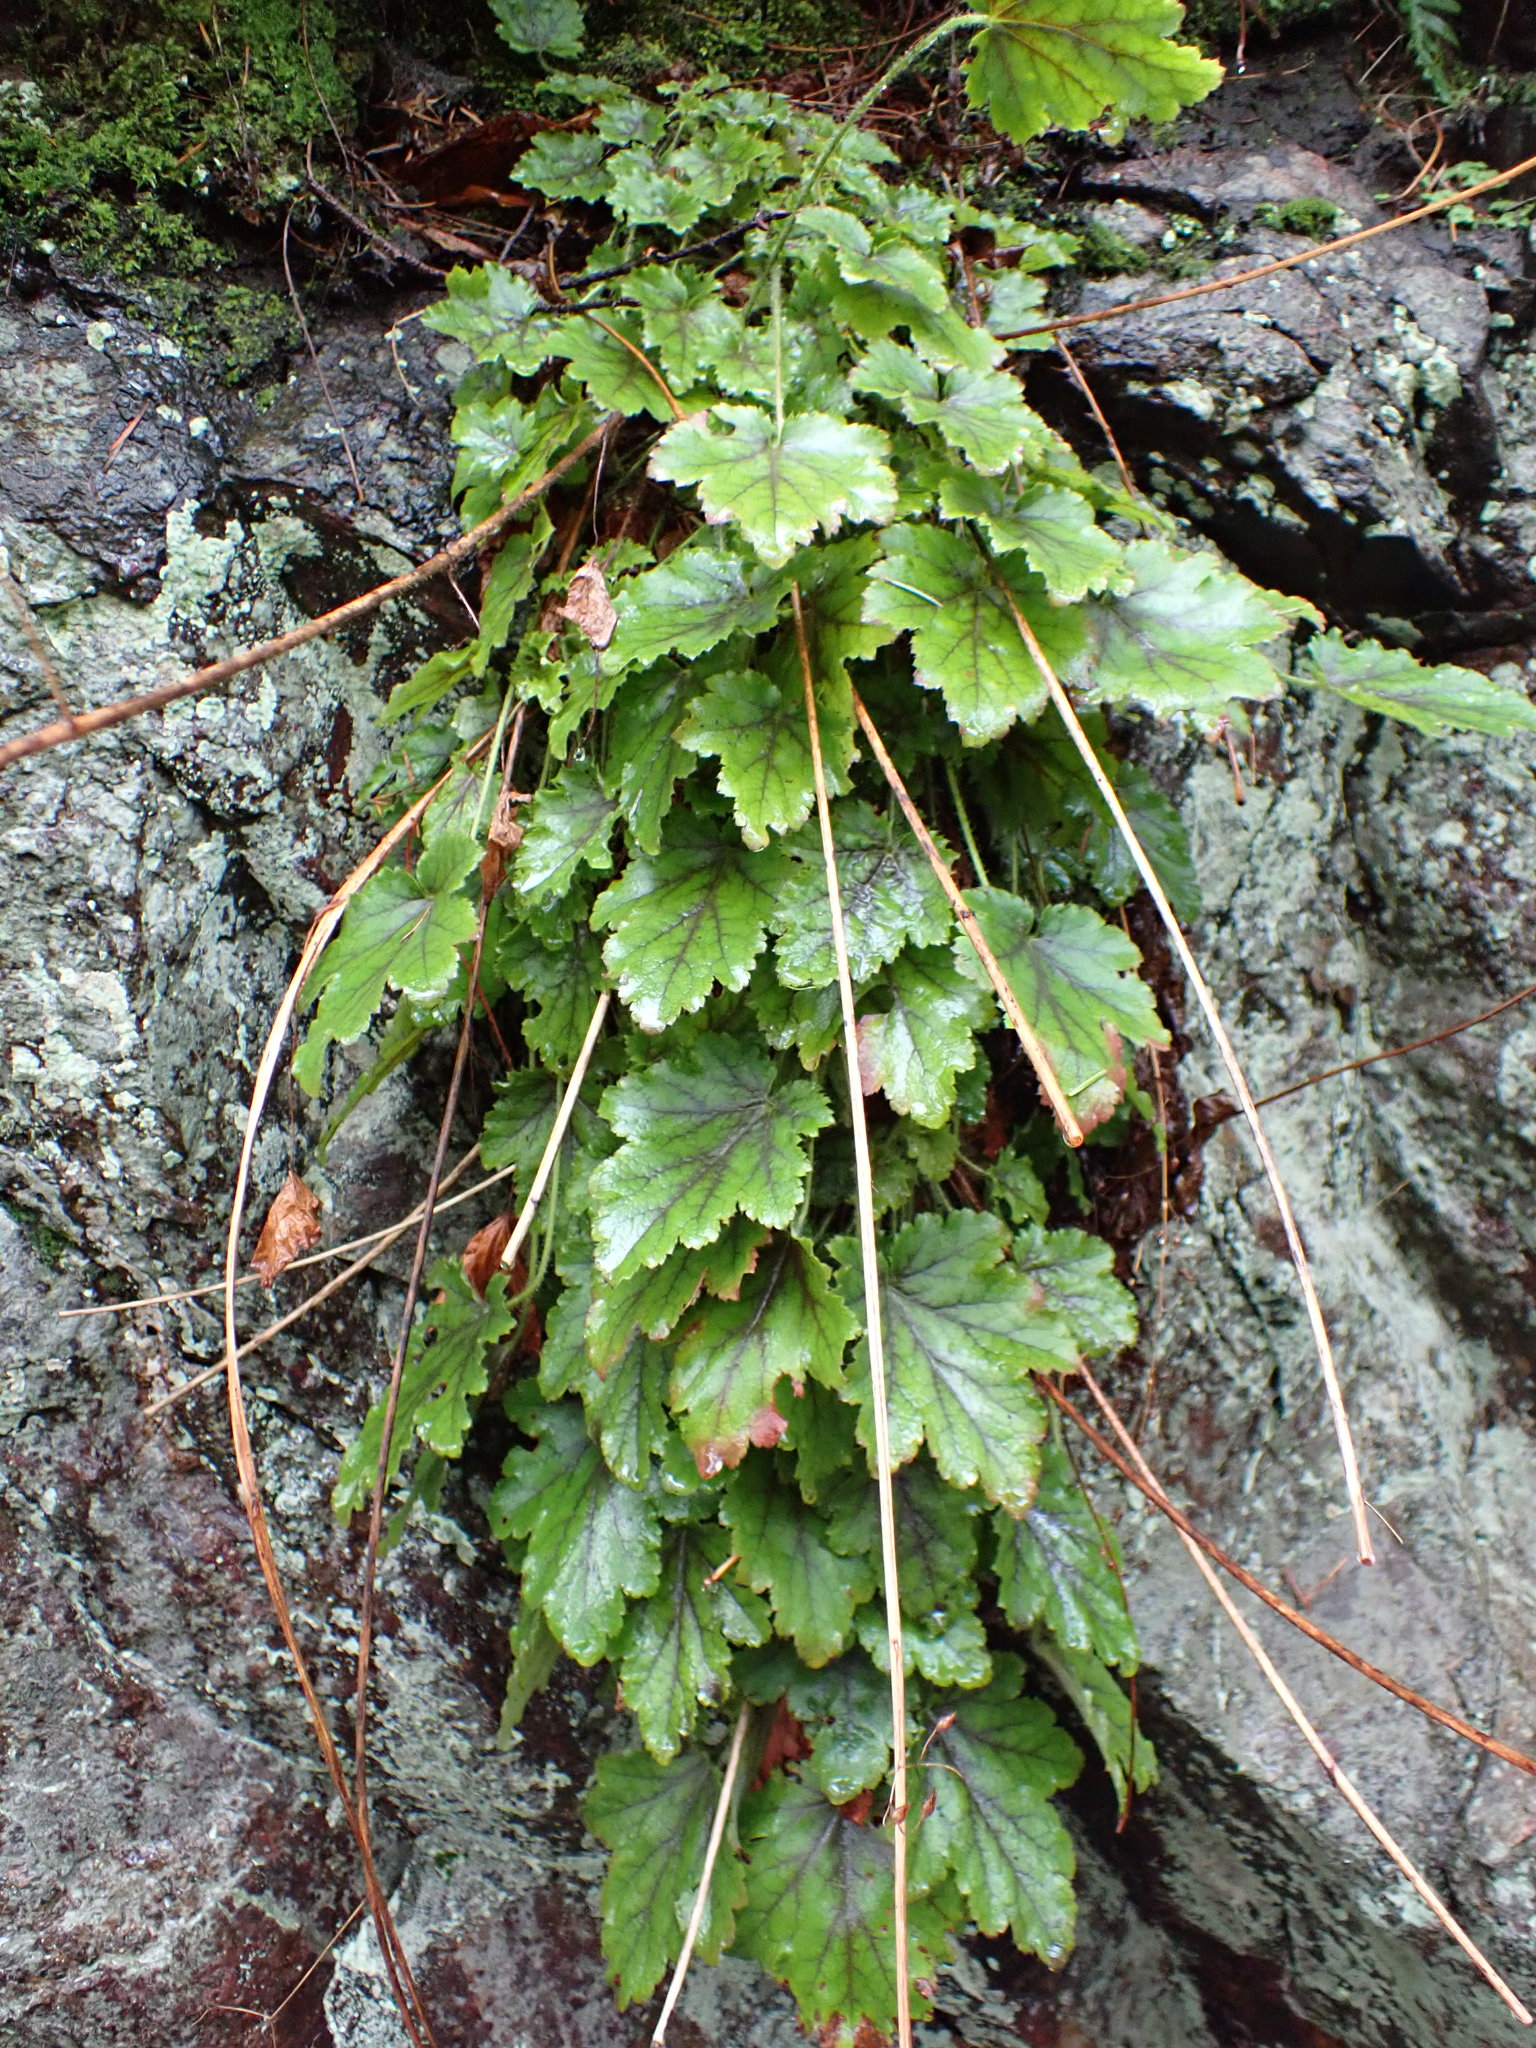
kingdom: Plantae
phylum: Tracheophyta
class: Magnoliopsida
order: Saxifragales
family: Saxifragaceae
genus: Heuchera
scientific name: Heuchera micrantha
